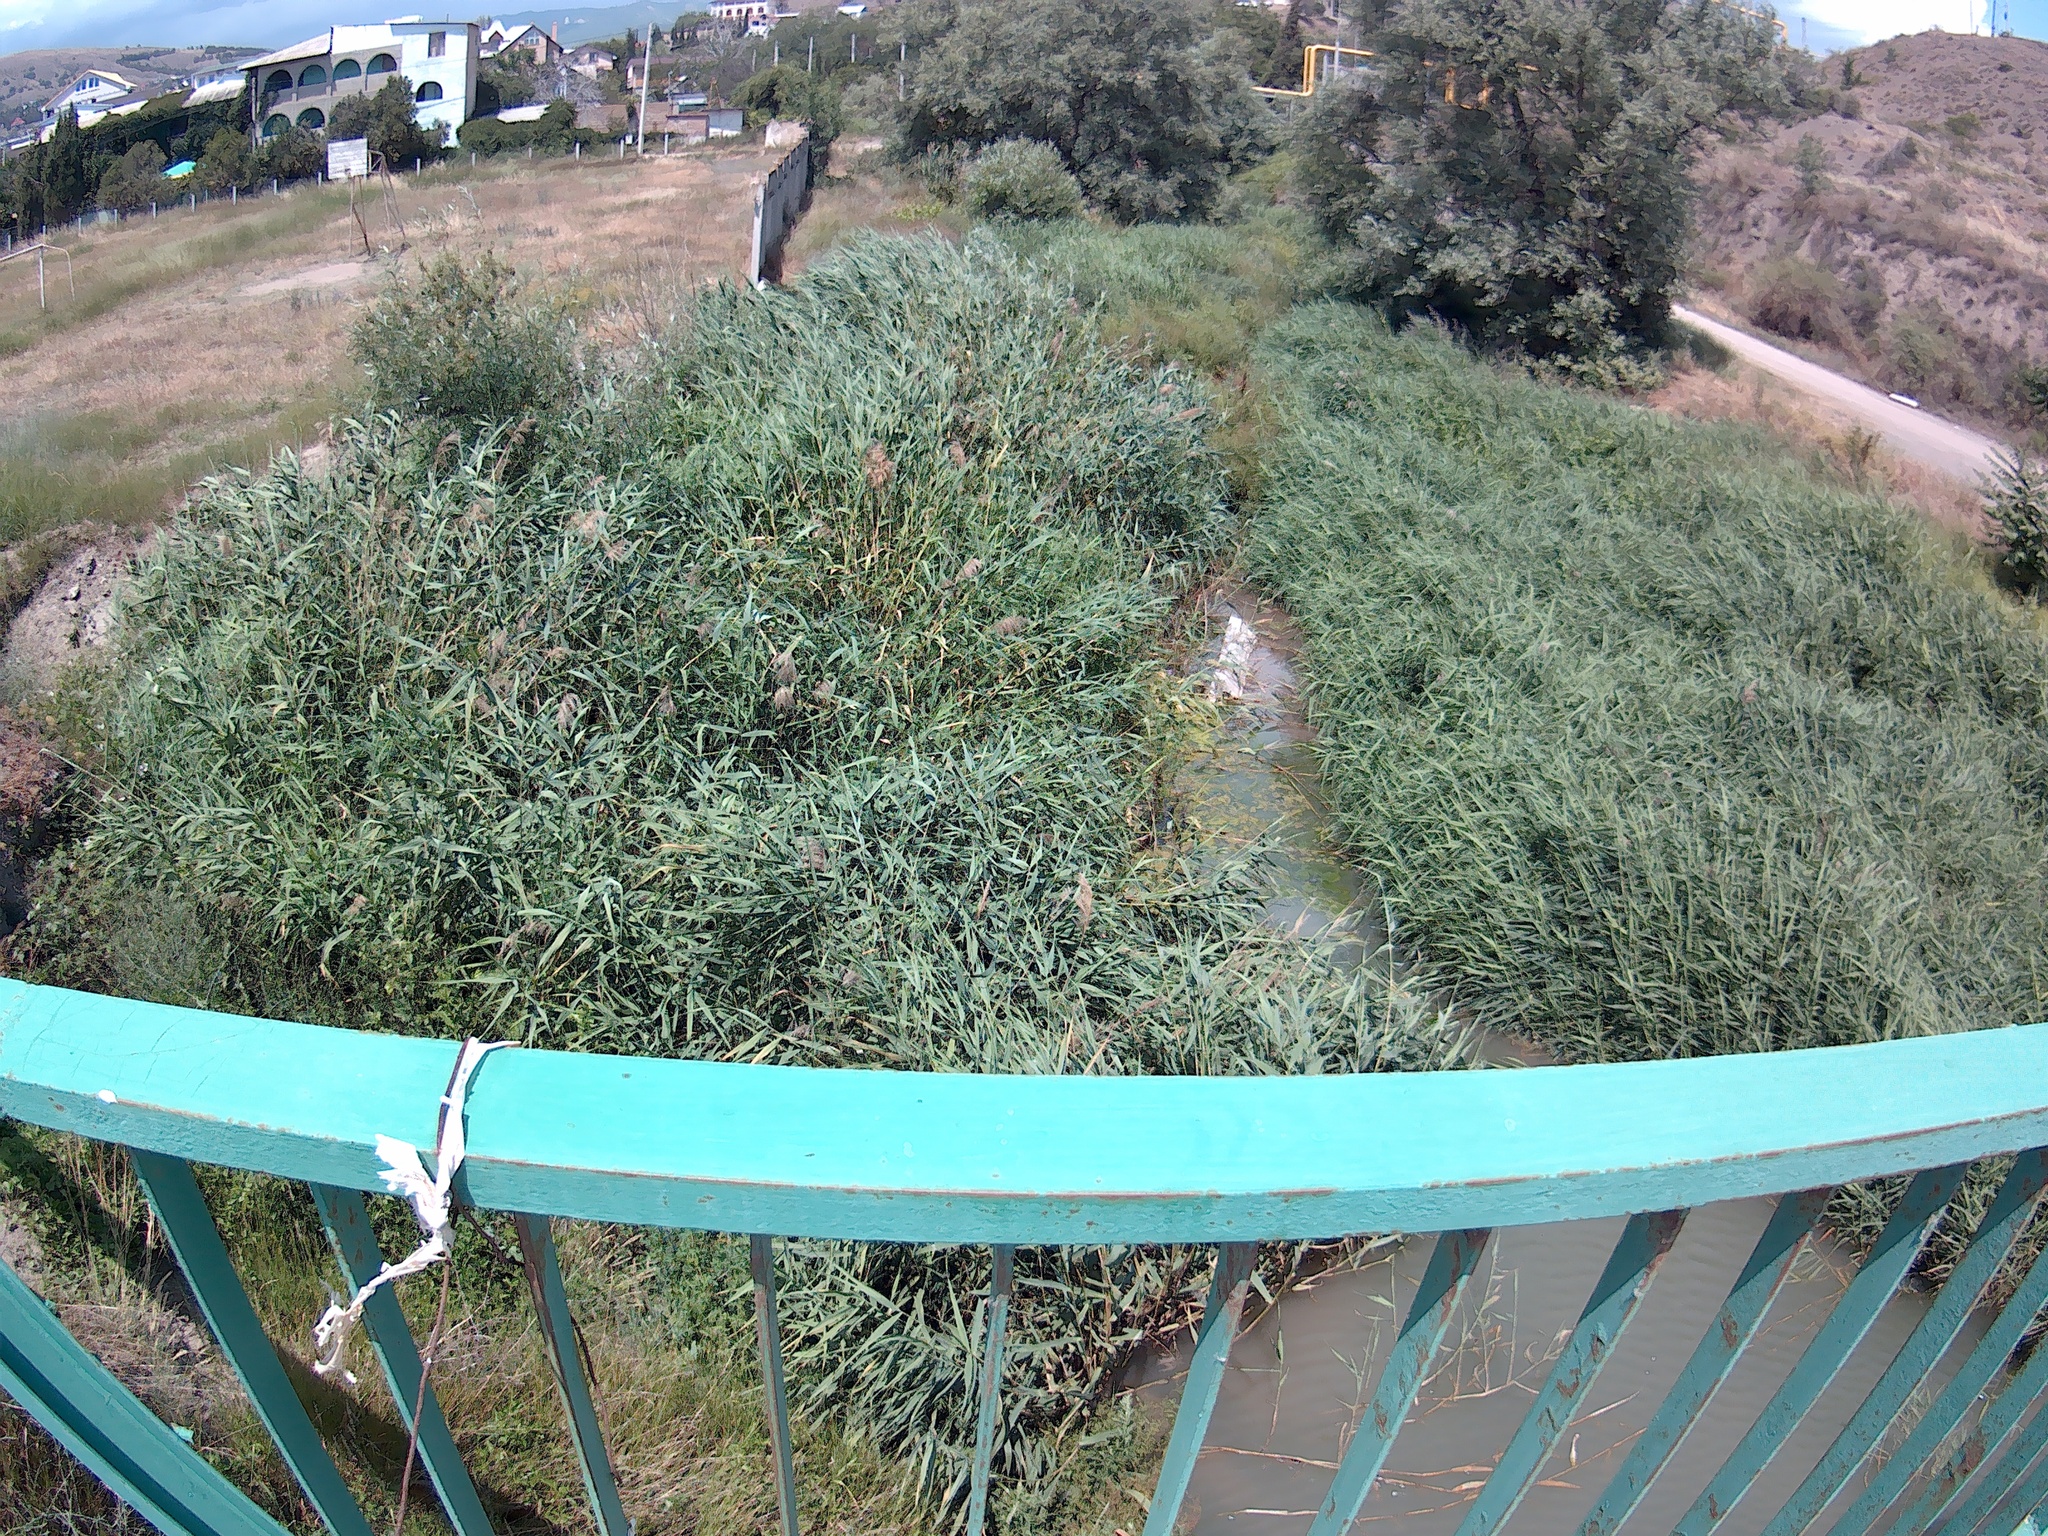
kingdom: Plantae
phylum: Tracheophyta
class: Liliopsida
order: Poales
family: Poaceae
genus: Phragmites
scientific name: Phragmites australis
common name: Common reed
